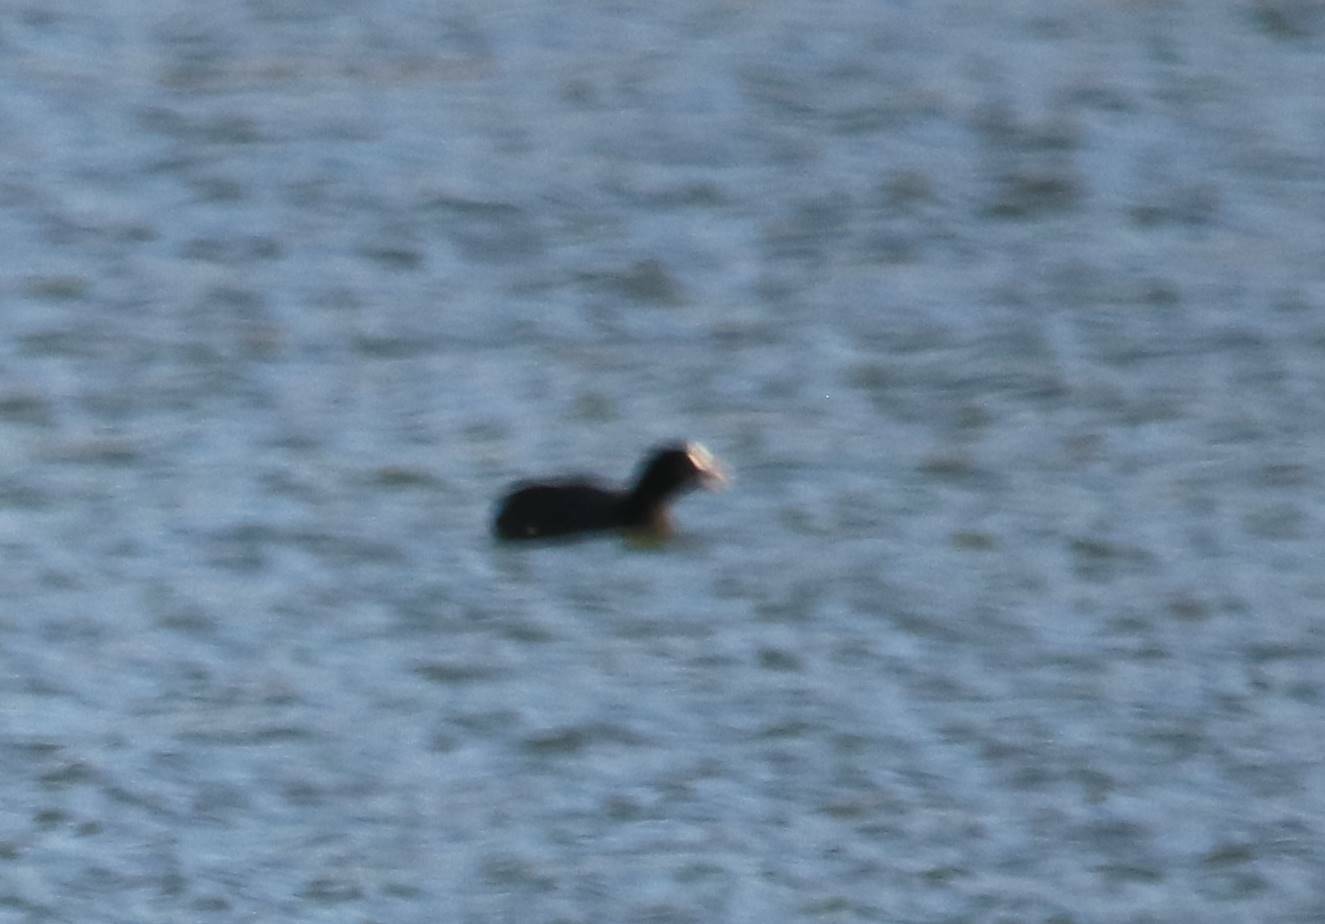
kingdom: Animalia
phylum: Chordata
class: Aves
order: Gruiformes
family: Rallidae
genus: Fulica
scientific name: Fulica atra
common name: Eurasian coot
